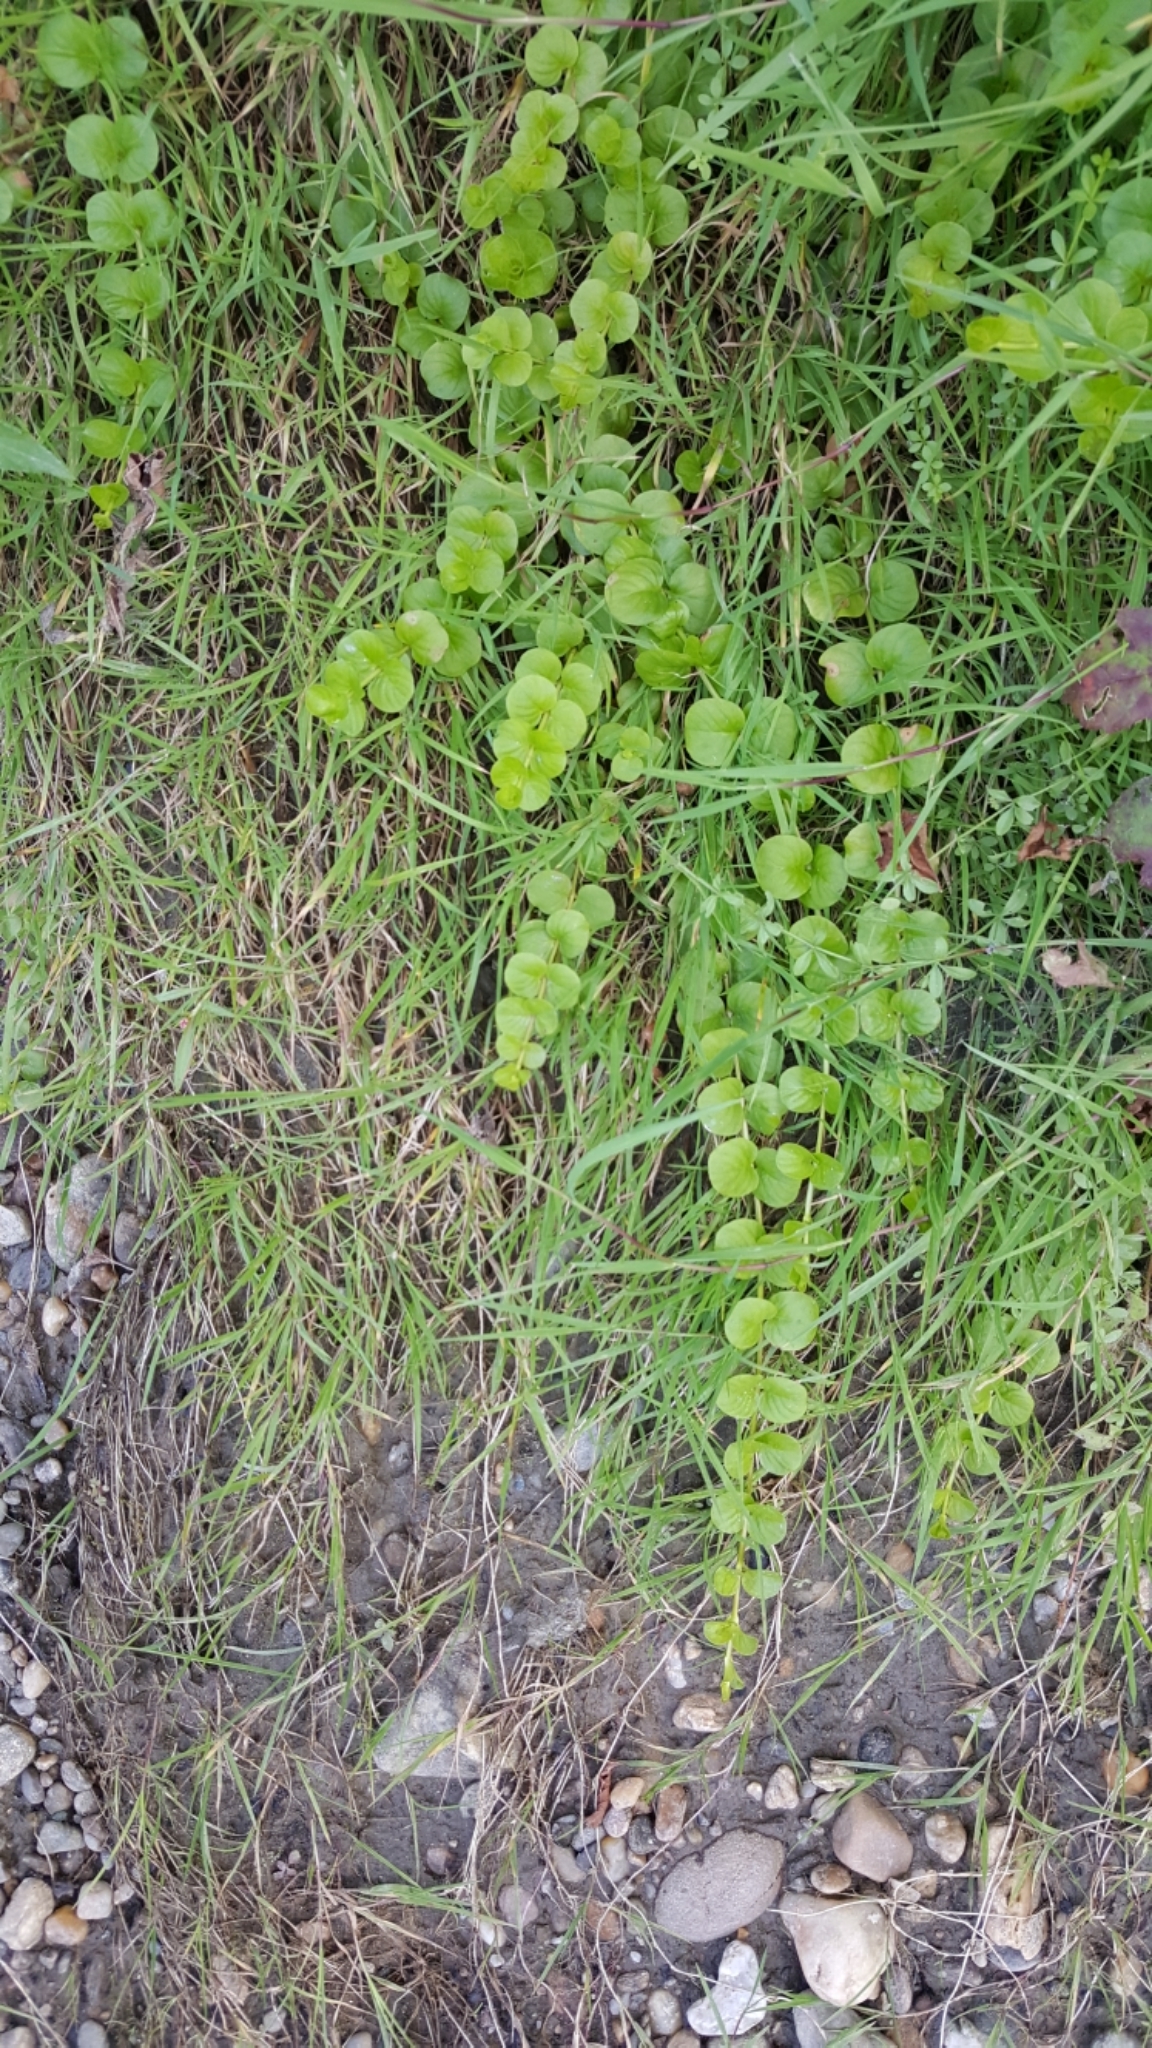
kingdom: Plantae
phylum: Tracheophyta
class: Magnoliopsida
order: Ericales
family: Primulaceae
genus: Lysimachia
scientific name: Lysimachia nummularia
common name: Moneywort
